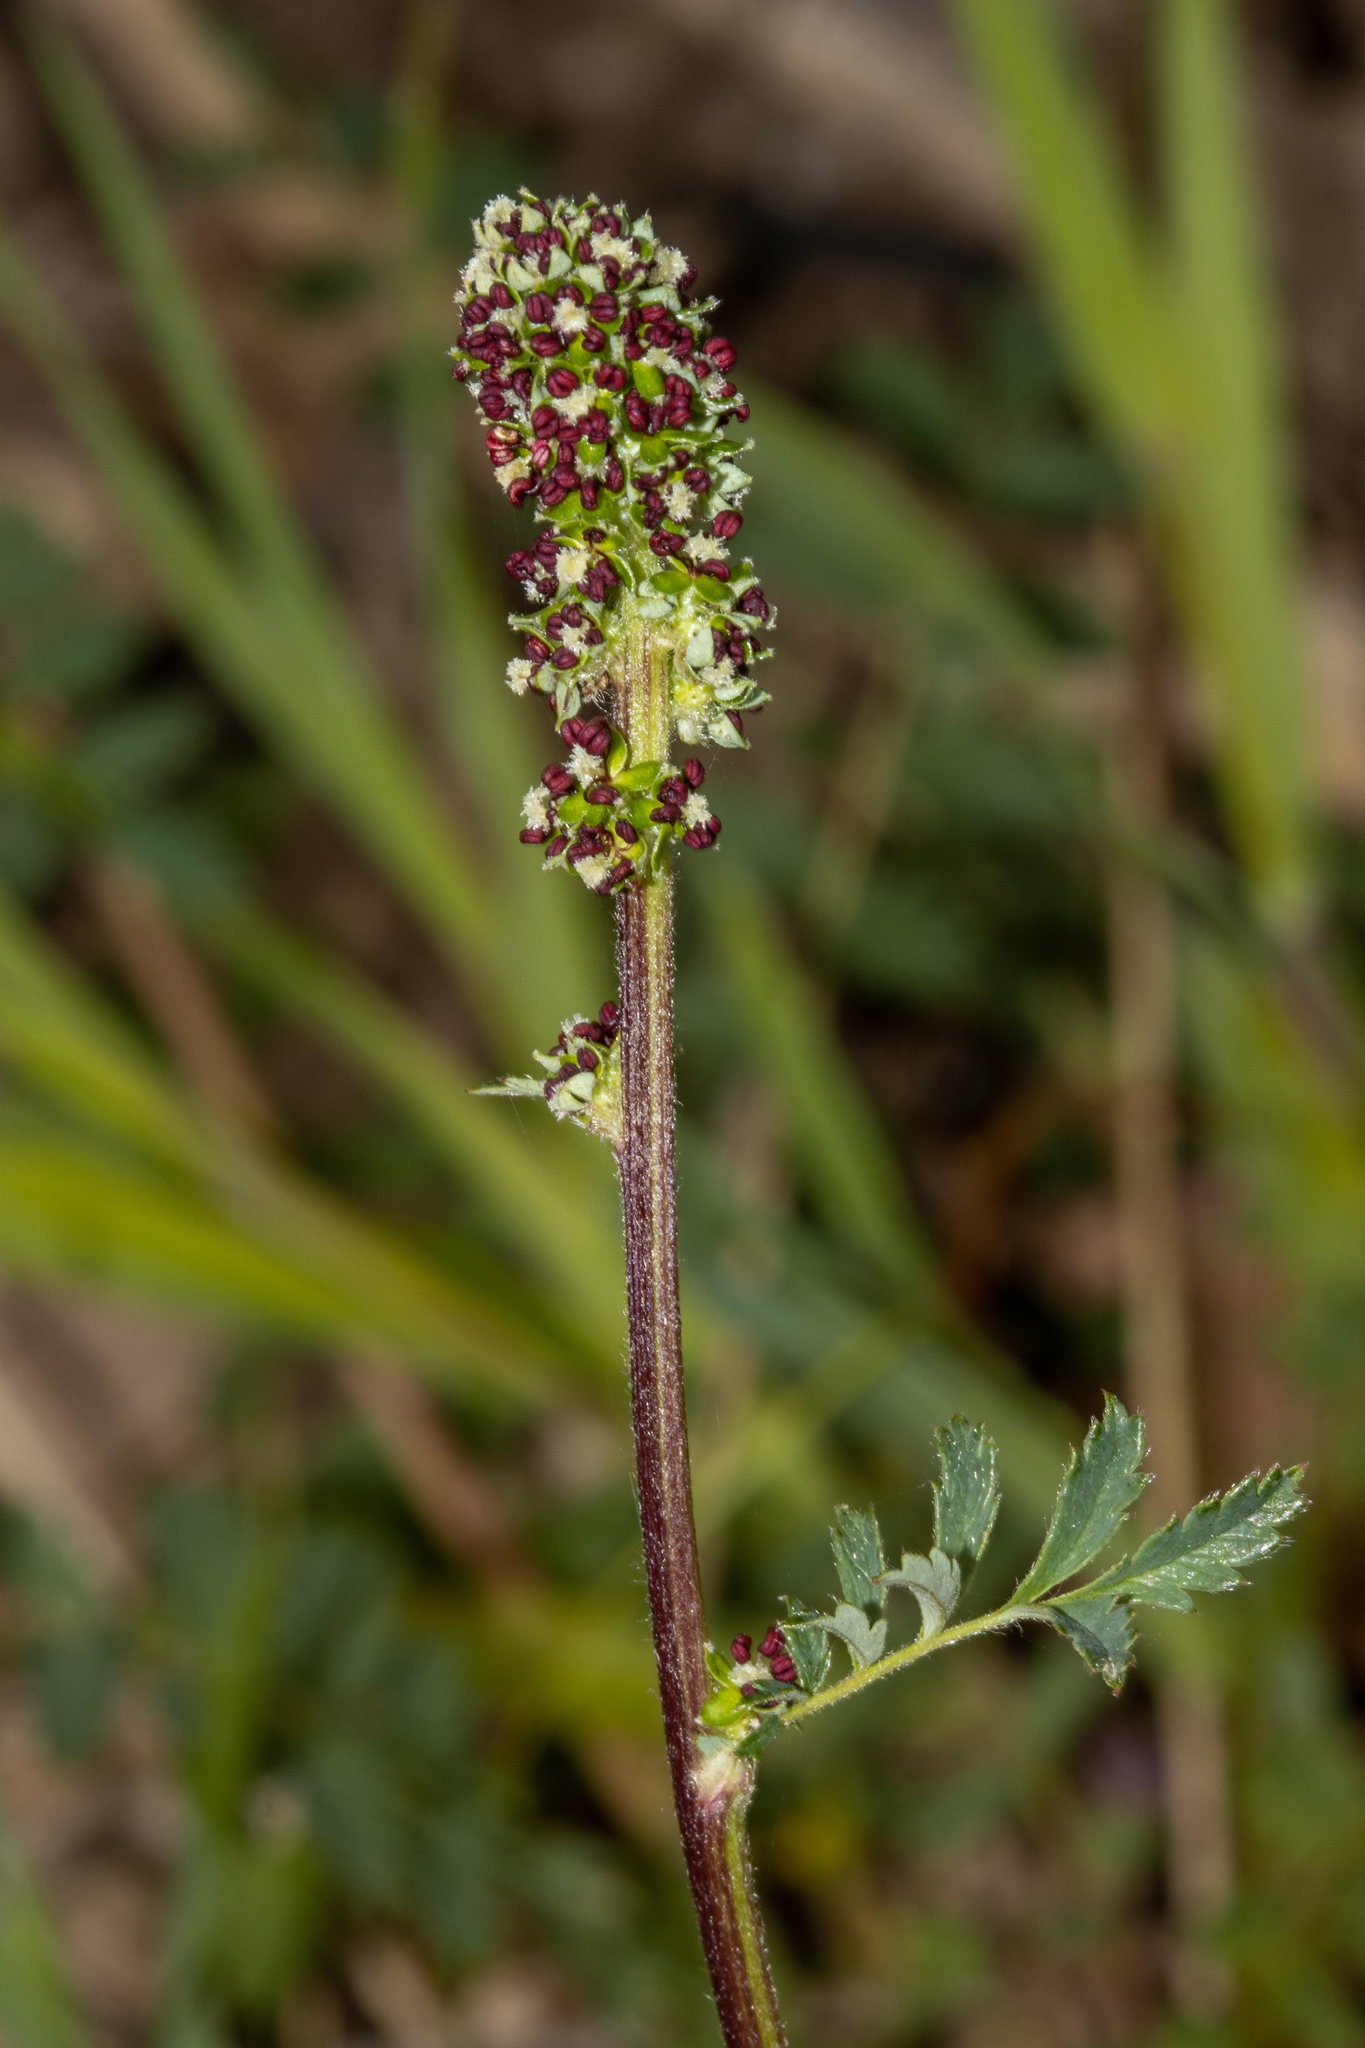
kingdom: Plantae
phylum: Tracheophyta
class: Magnoliopsida
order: Rosales
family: Rosaceae
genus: Acaena
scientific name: Acaena echinata
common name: Sheepbur
